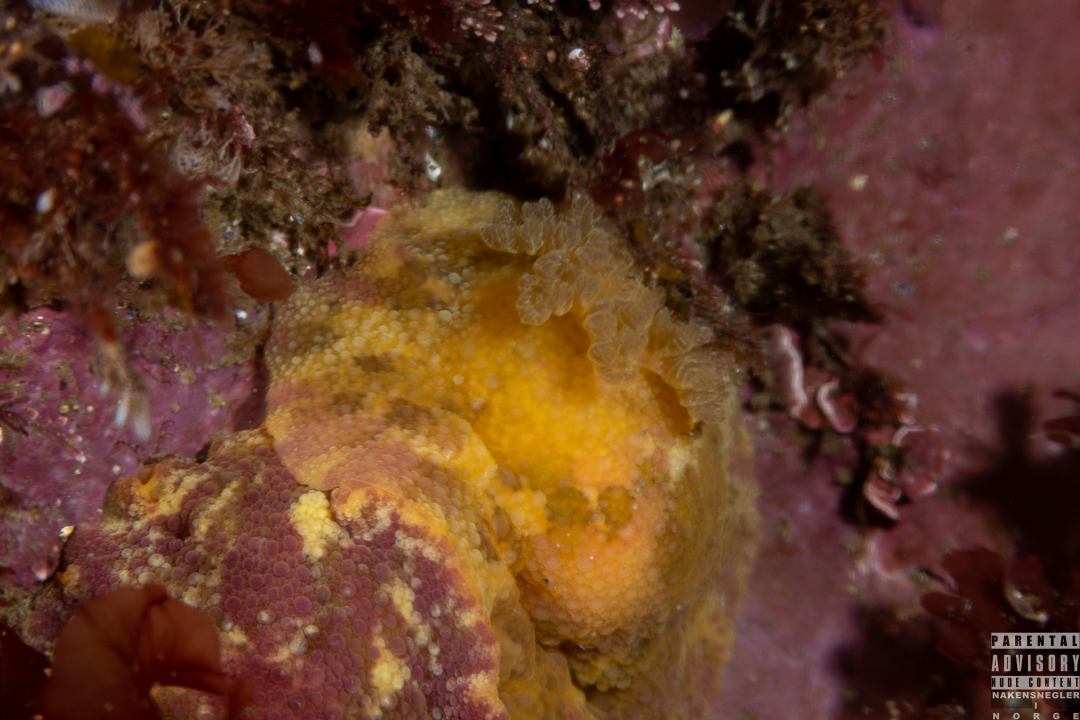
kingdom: Animalia
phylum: Mollusca
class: Gastropoda
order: Nudibranchia
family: Dorididae
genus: Doris
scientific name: Doris pseudoargus
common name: Sea lemon
